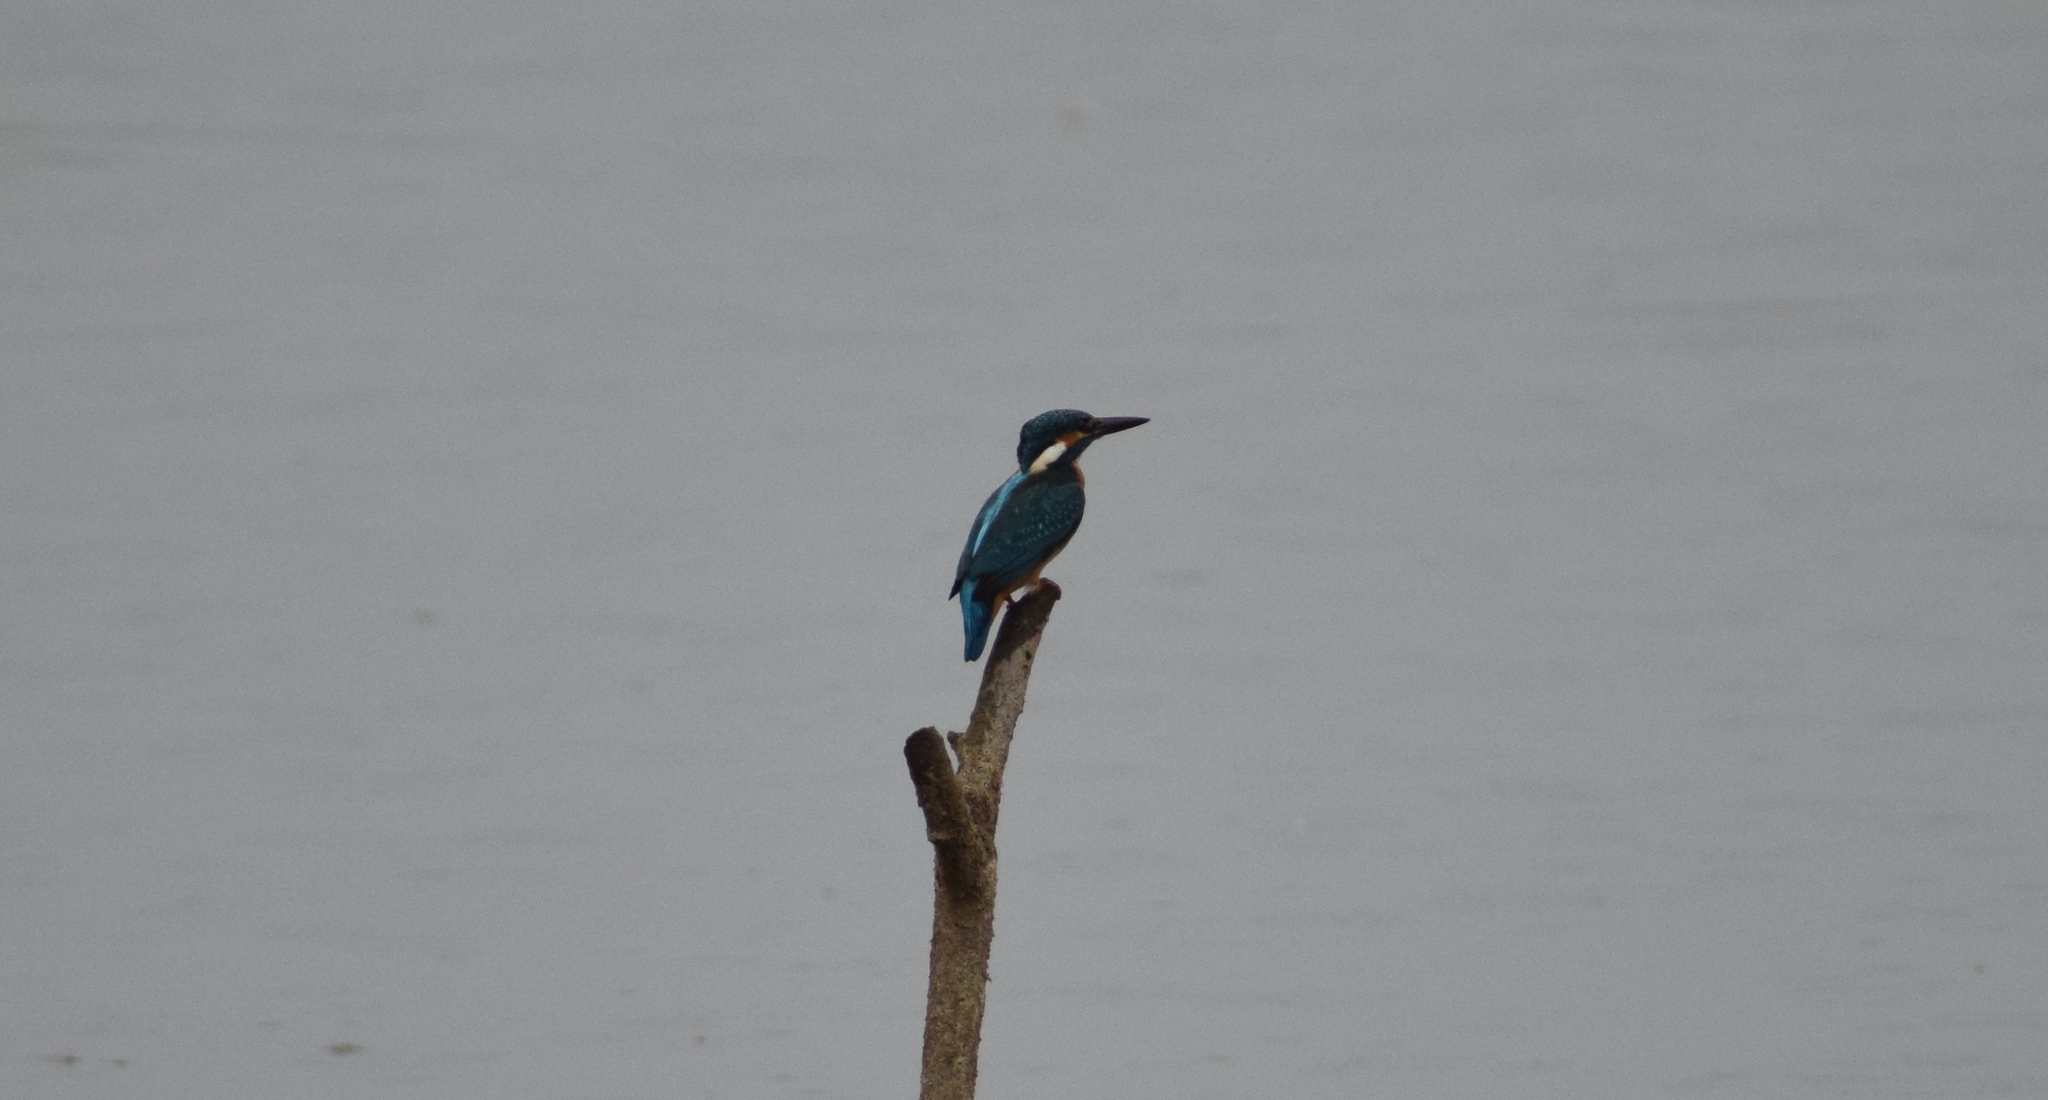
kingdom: Animalia
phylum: Chordata
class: Aves
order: Coraciiformes
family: Alcedinidae
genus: Alcedo
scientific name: Alcedo atthis
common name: Common kingfisher
